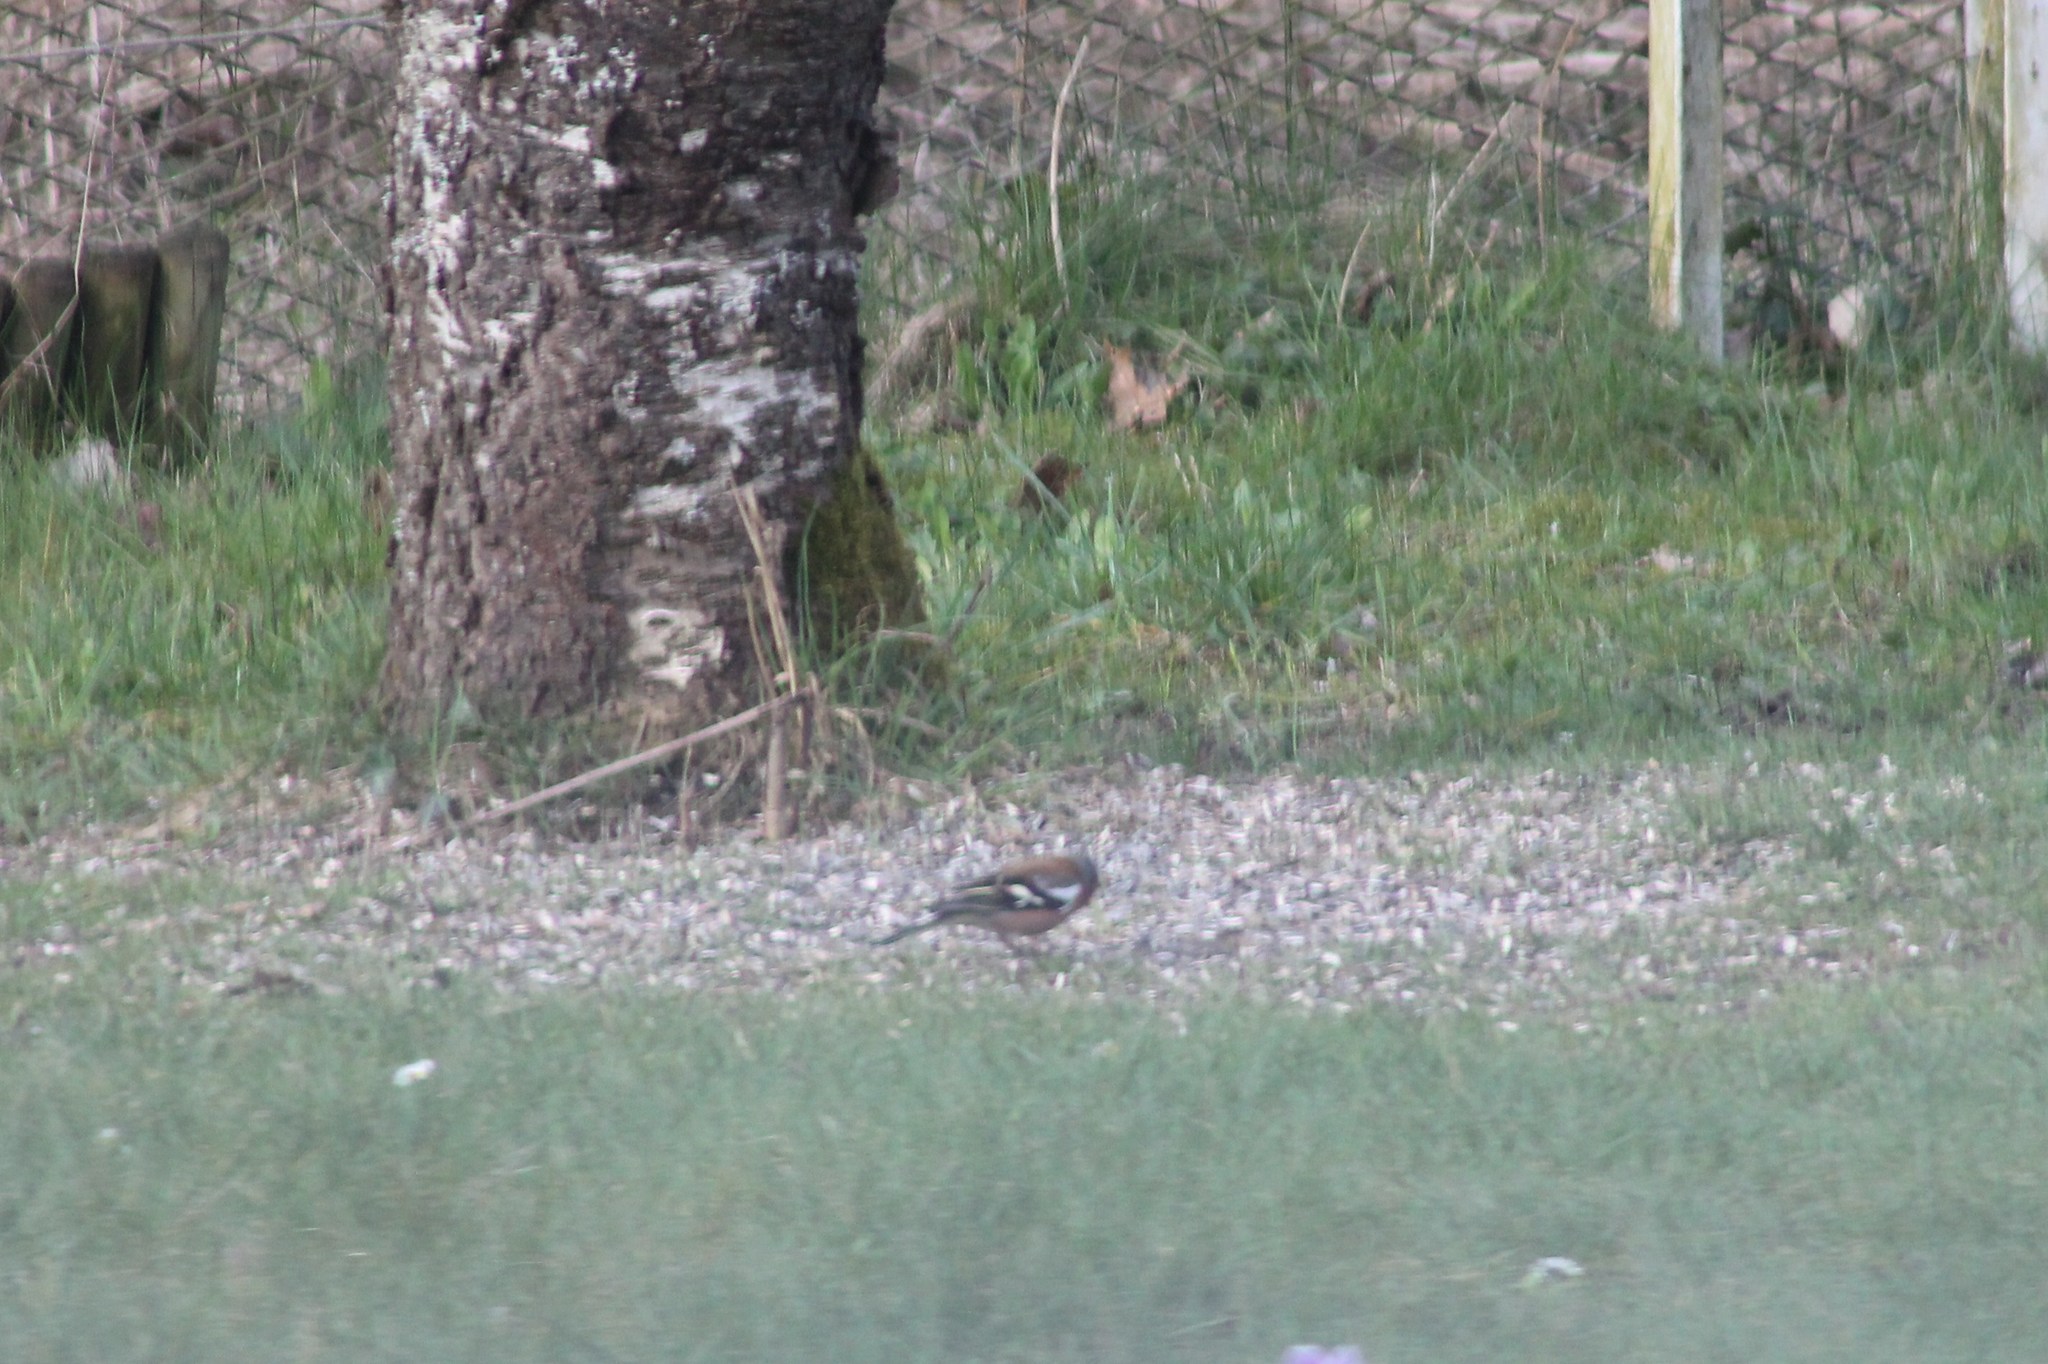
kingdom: Animalia
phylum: Chordata
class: Aves
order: Passeriformes
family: Fringillidae
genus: Fringilla
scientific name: Fringilla coelebs
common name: Common chaffinch
